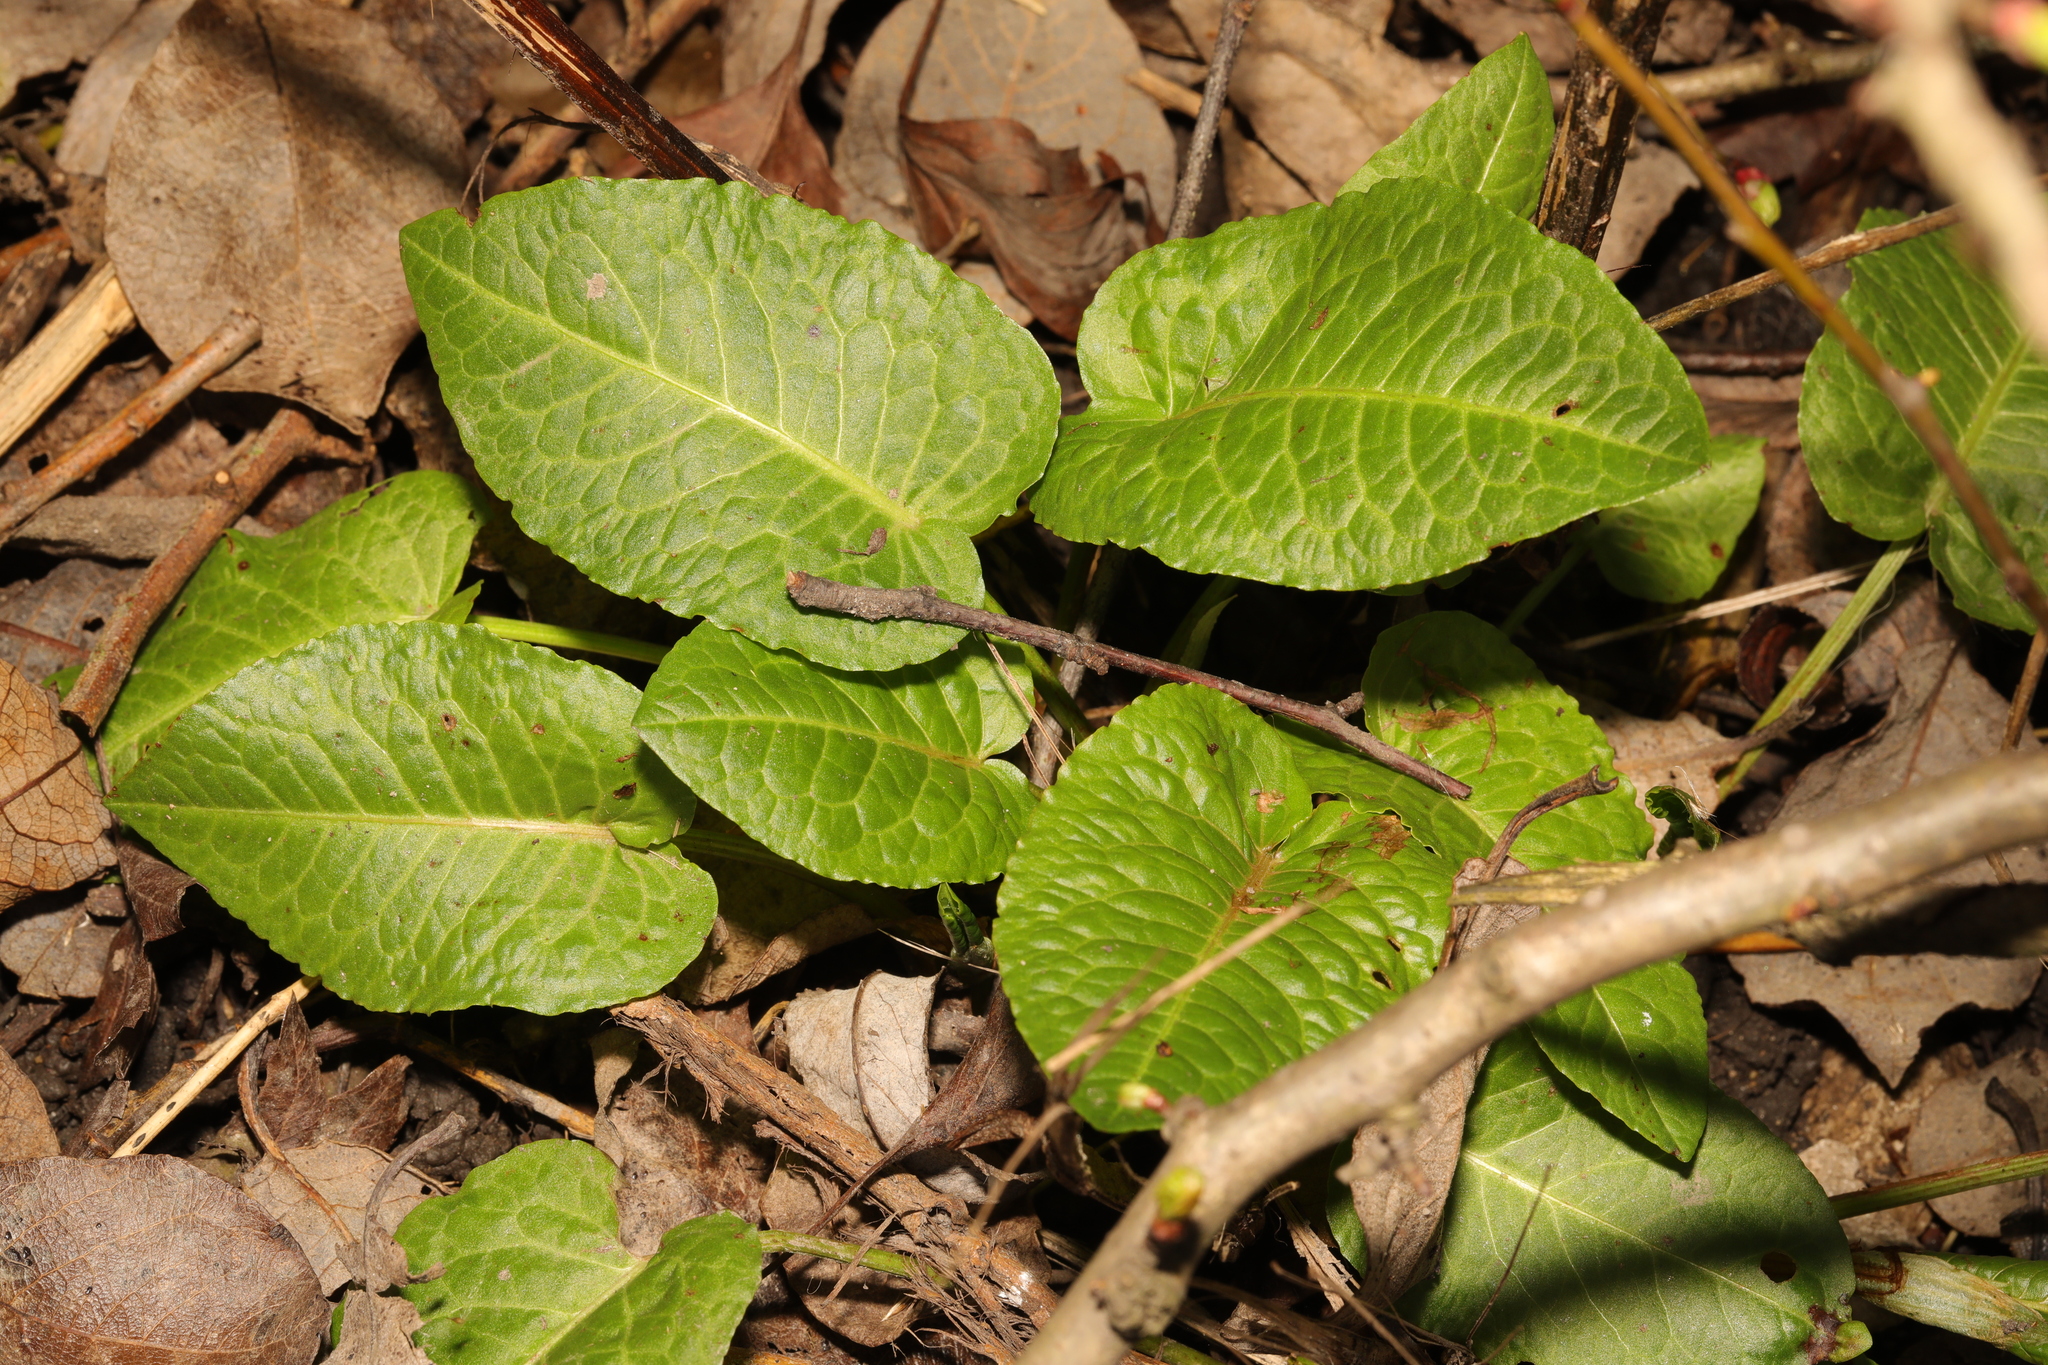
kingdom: Plantae
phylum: Tracheophyta
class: Magnoliopsida
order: Caryophyllales
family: Polygonaceae
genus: Rumex
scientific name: Rumex obtusifolius
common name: Bitter dock
